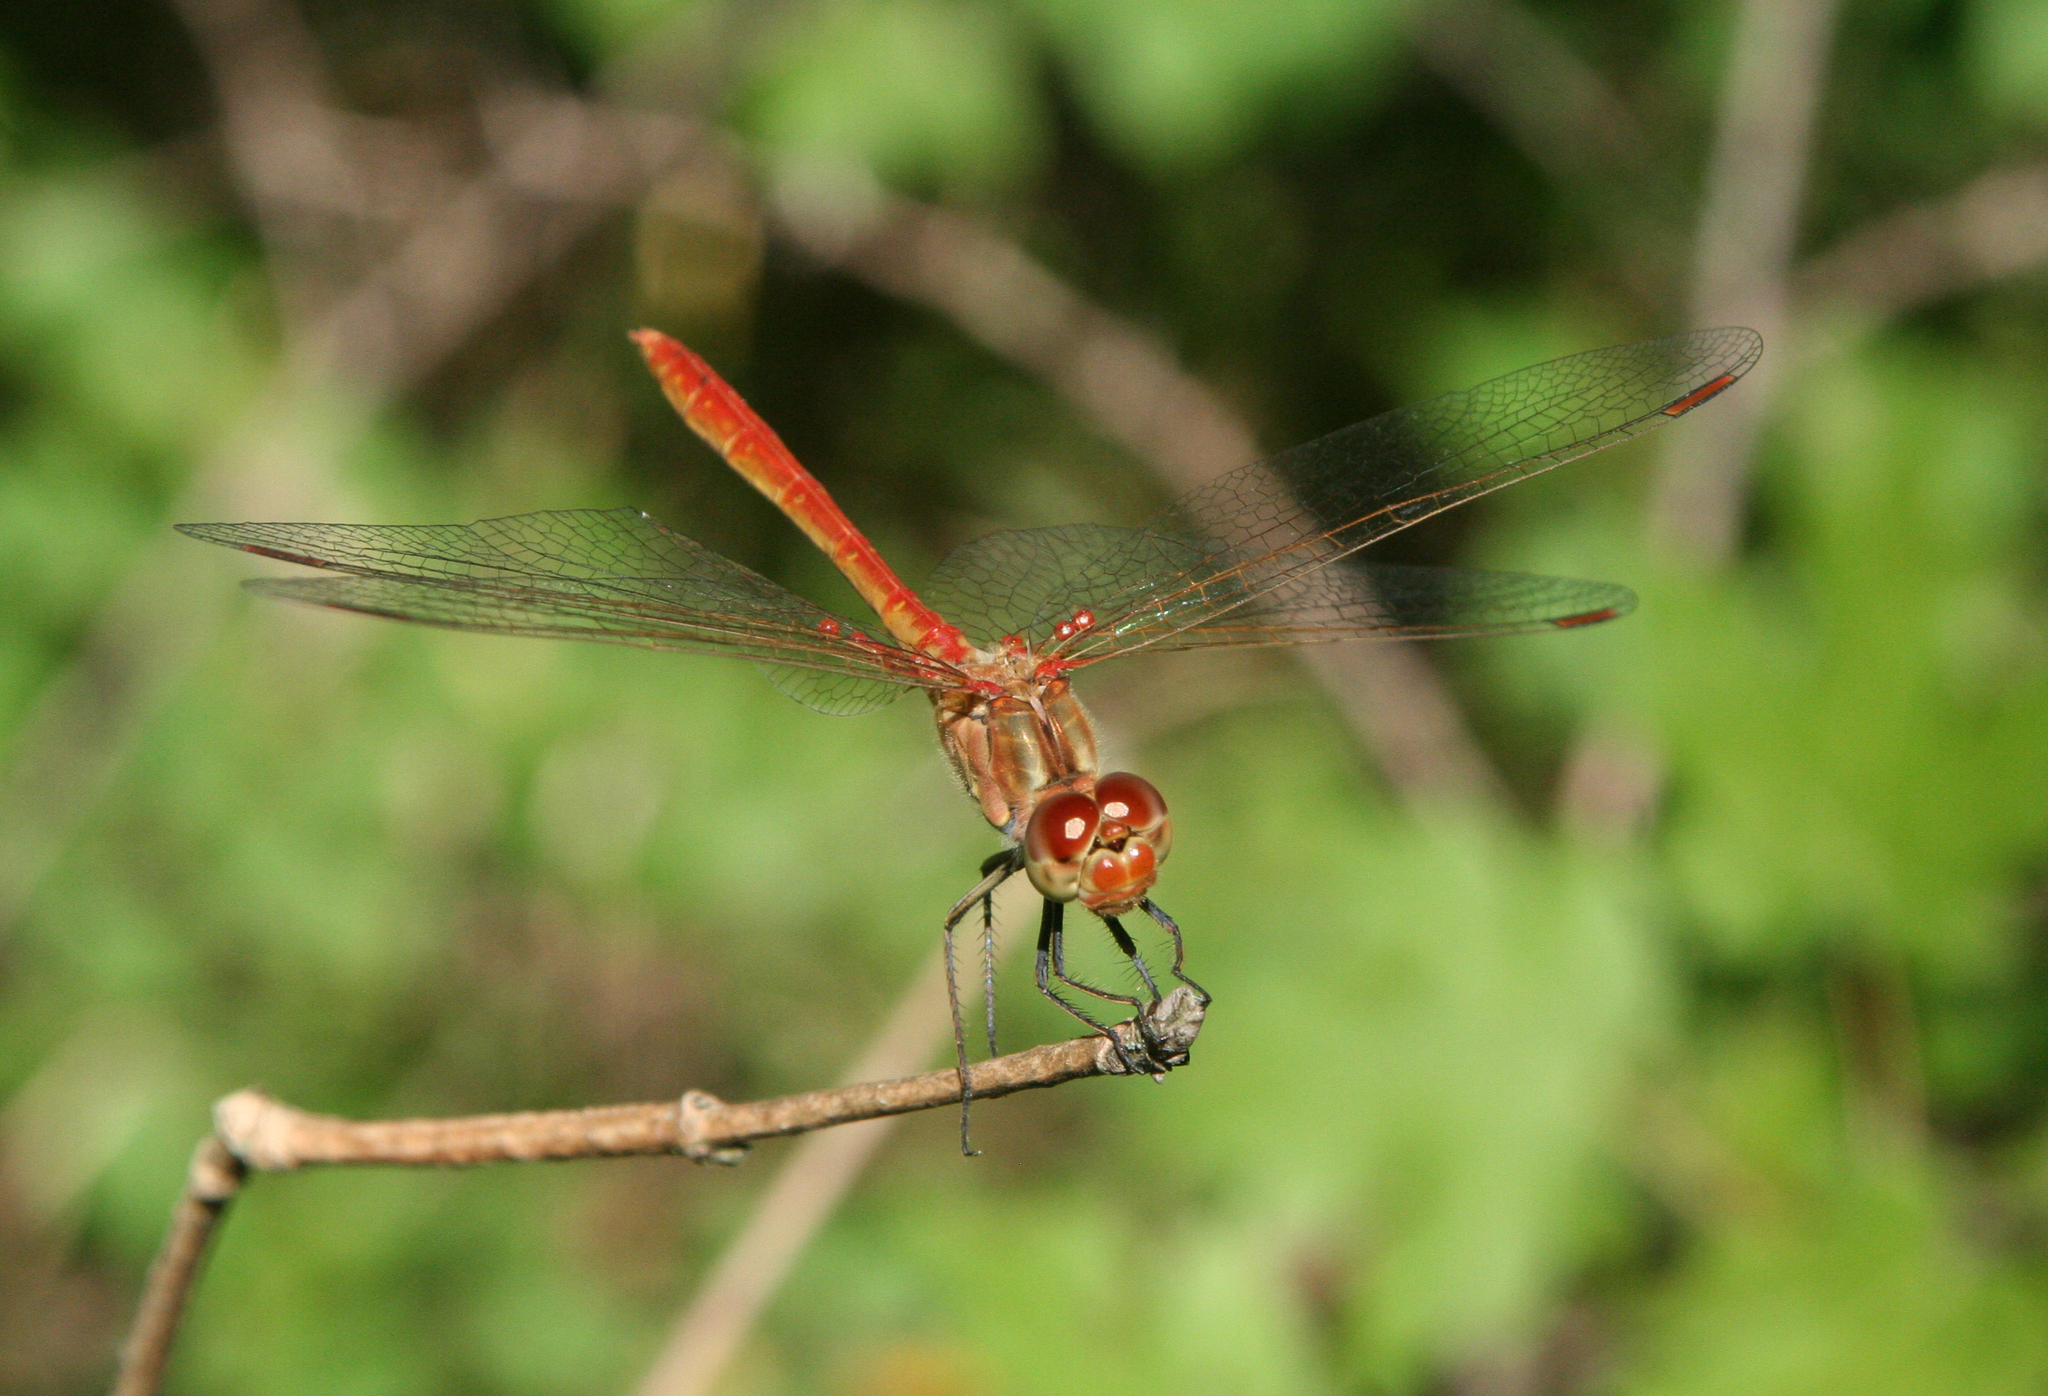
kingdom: Animalia
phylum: Arthropoda
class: Insecta
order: Odonata
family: Libellulidae
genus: Sympetrum
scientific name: Sympetrum meridionale
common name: Southern darter
